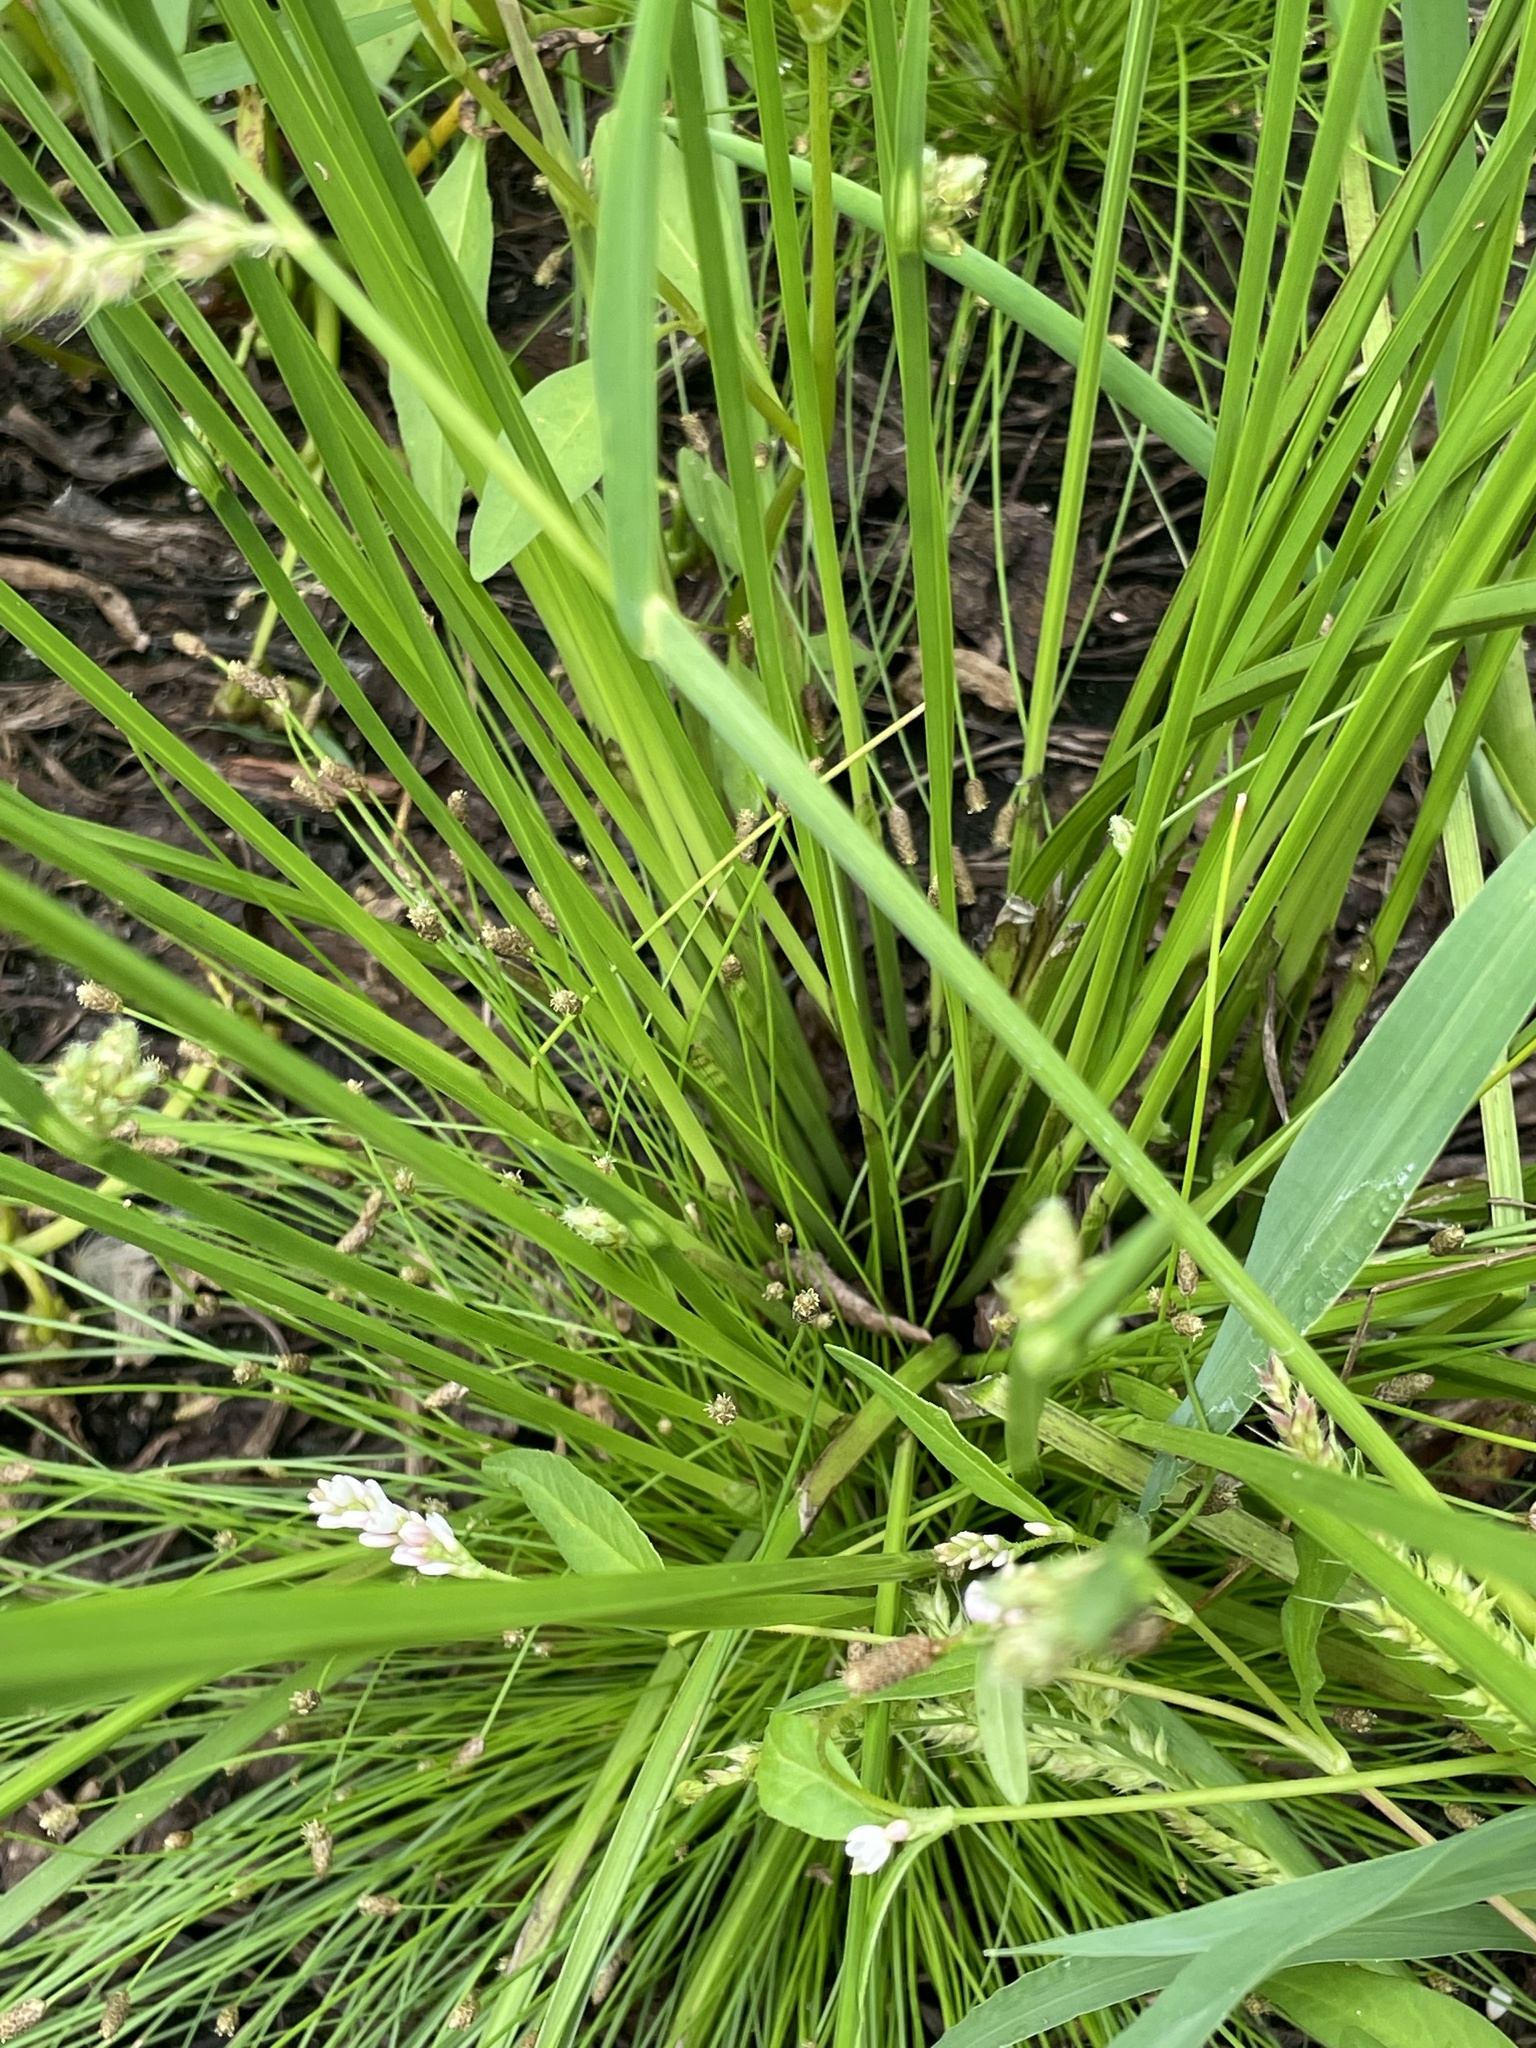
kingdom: Plantae
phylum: Tracheophyta
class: Liliopsida
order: Poales
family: Cyperaceae
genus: Schoenoplectiella
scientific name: Schoenoplectiella mucronata
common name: Bog bulrush
